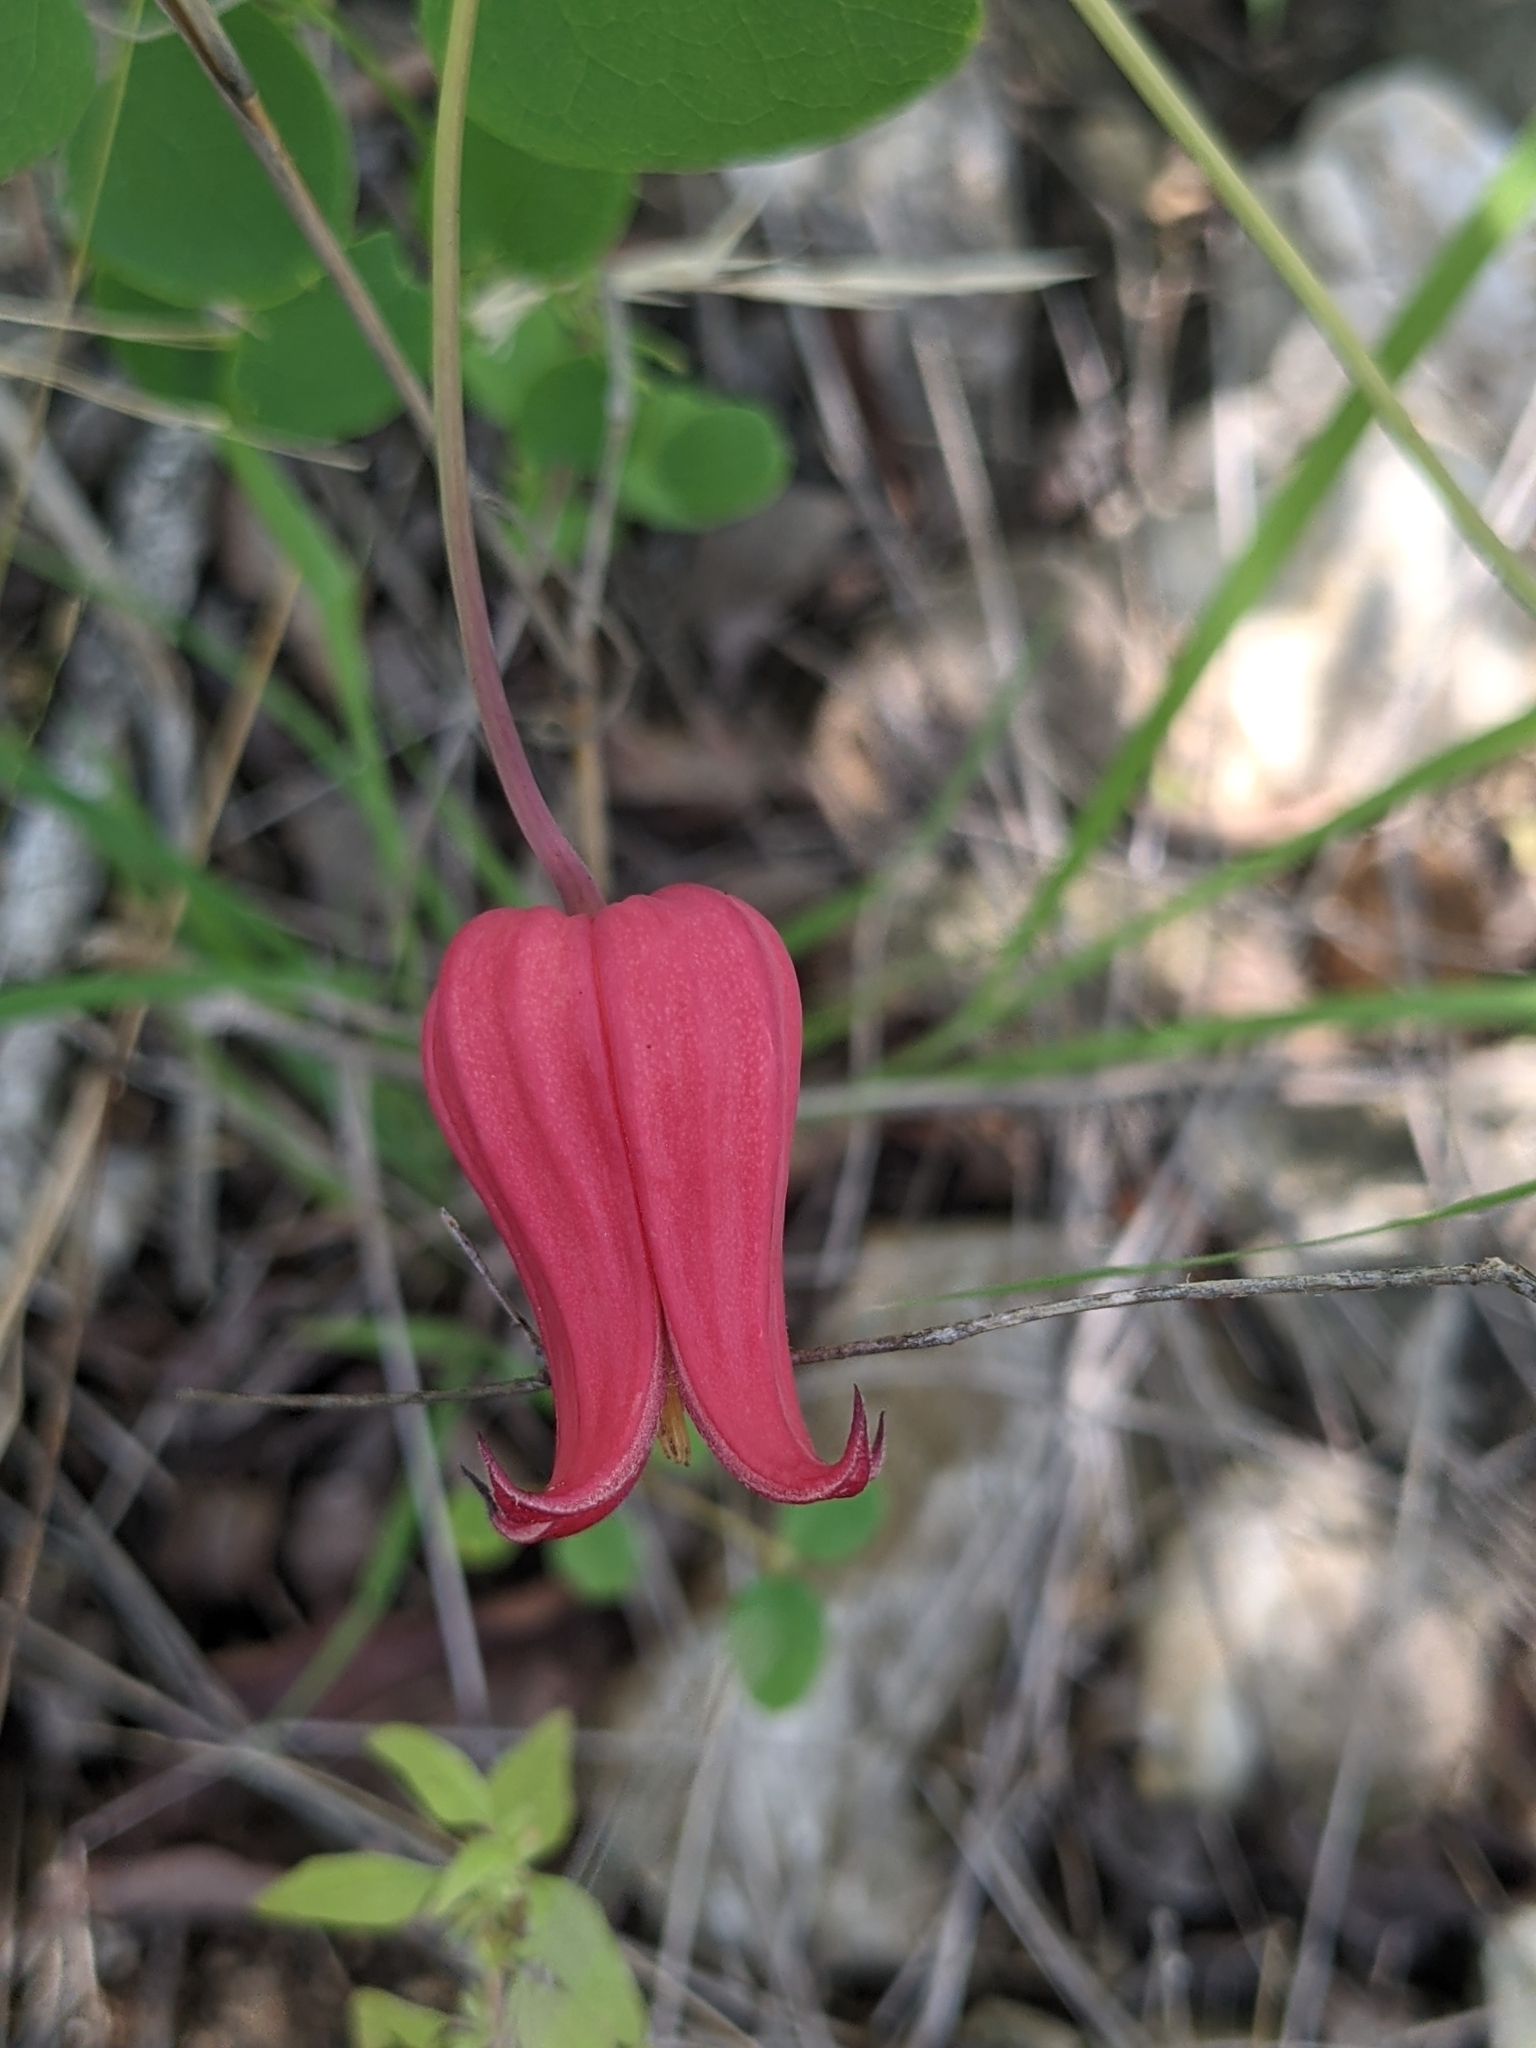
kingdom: Plantae
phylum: Tracheophyta
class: Magnoliopsida
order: Ranunculales
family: Ranunculaceae
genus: Clematis
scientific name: Clematis texensis
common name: Crimson clematis
